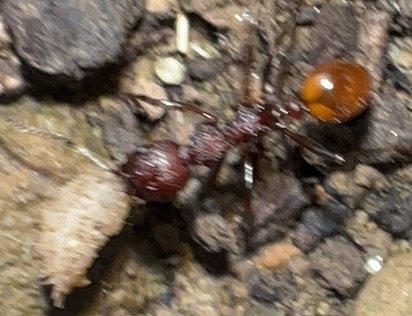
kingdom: Animalia
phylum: Arthropoda
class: Insecta
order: Hymenoptera
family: Formicidae
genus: Aphaenogaster
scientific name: Aphaenogaster tennesseensis
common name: Tennessee thread-waisted ant
